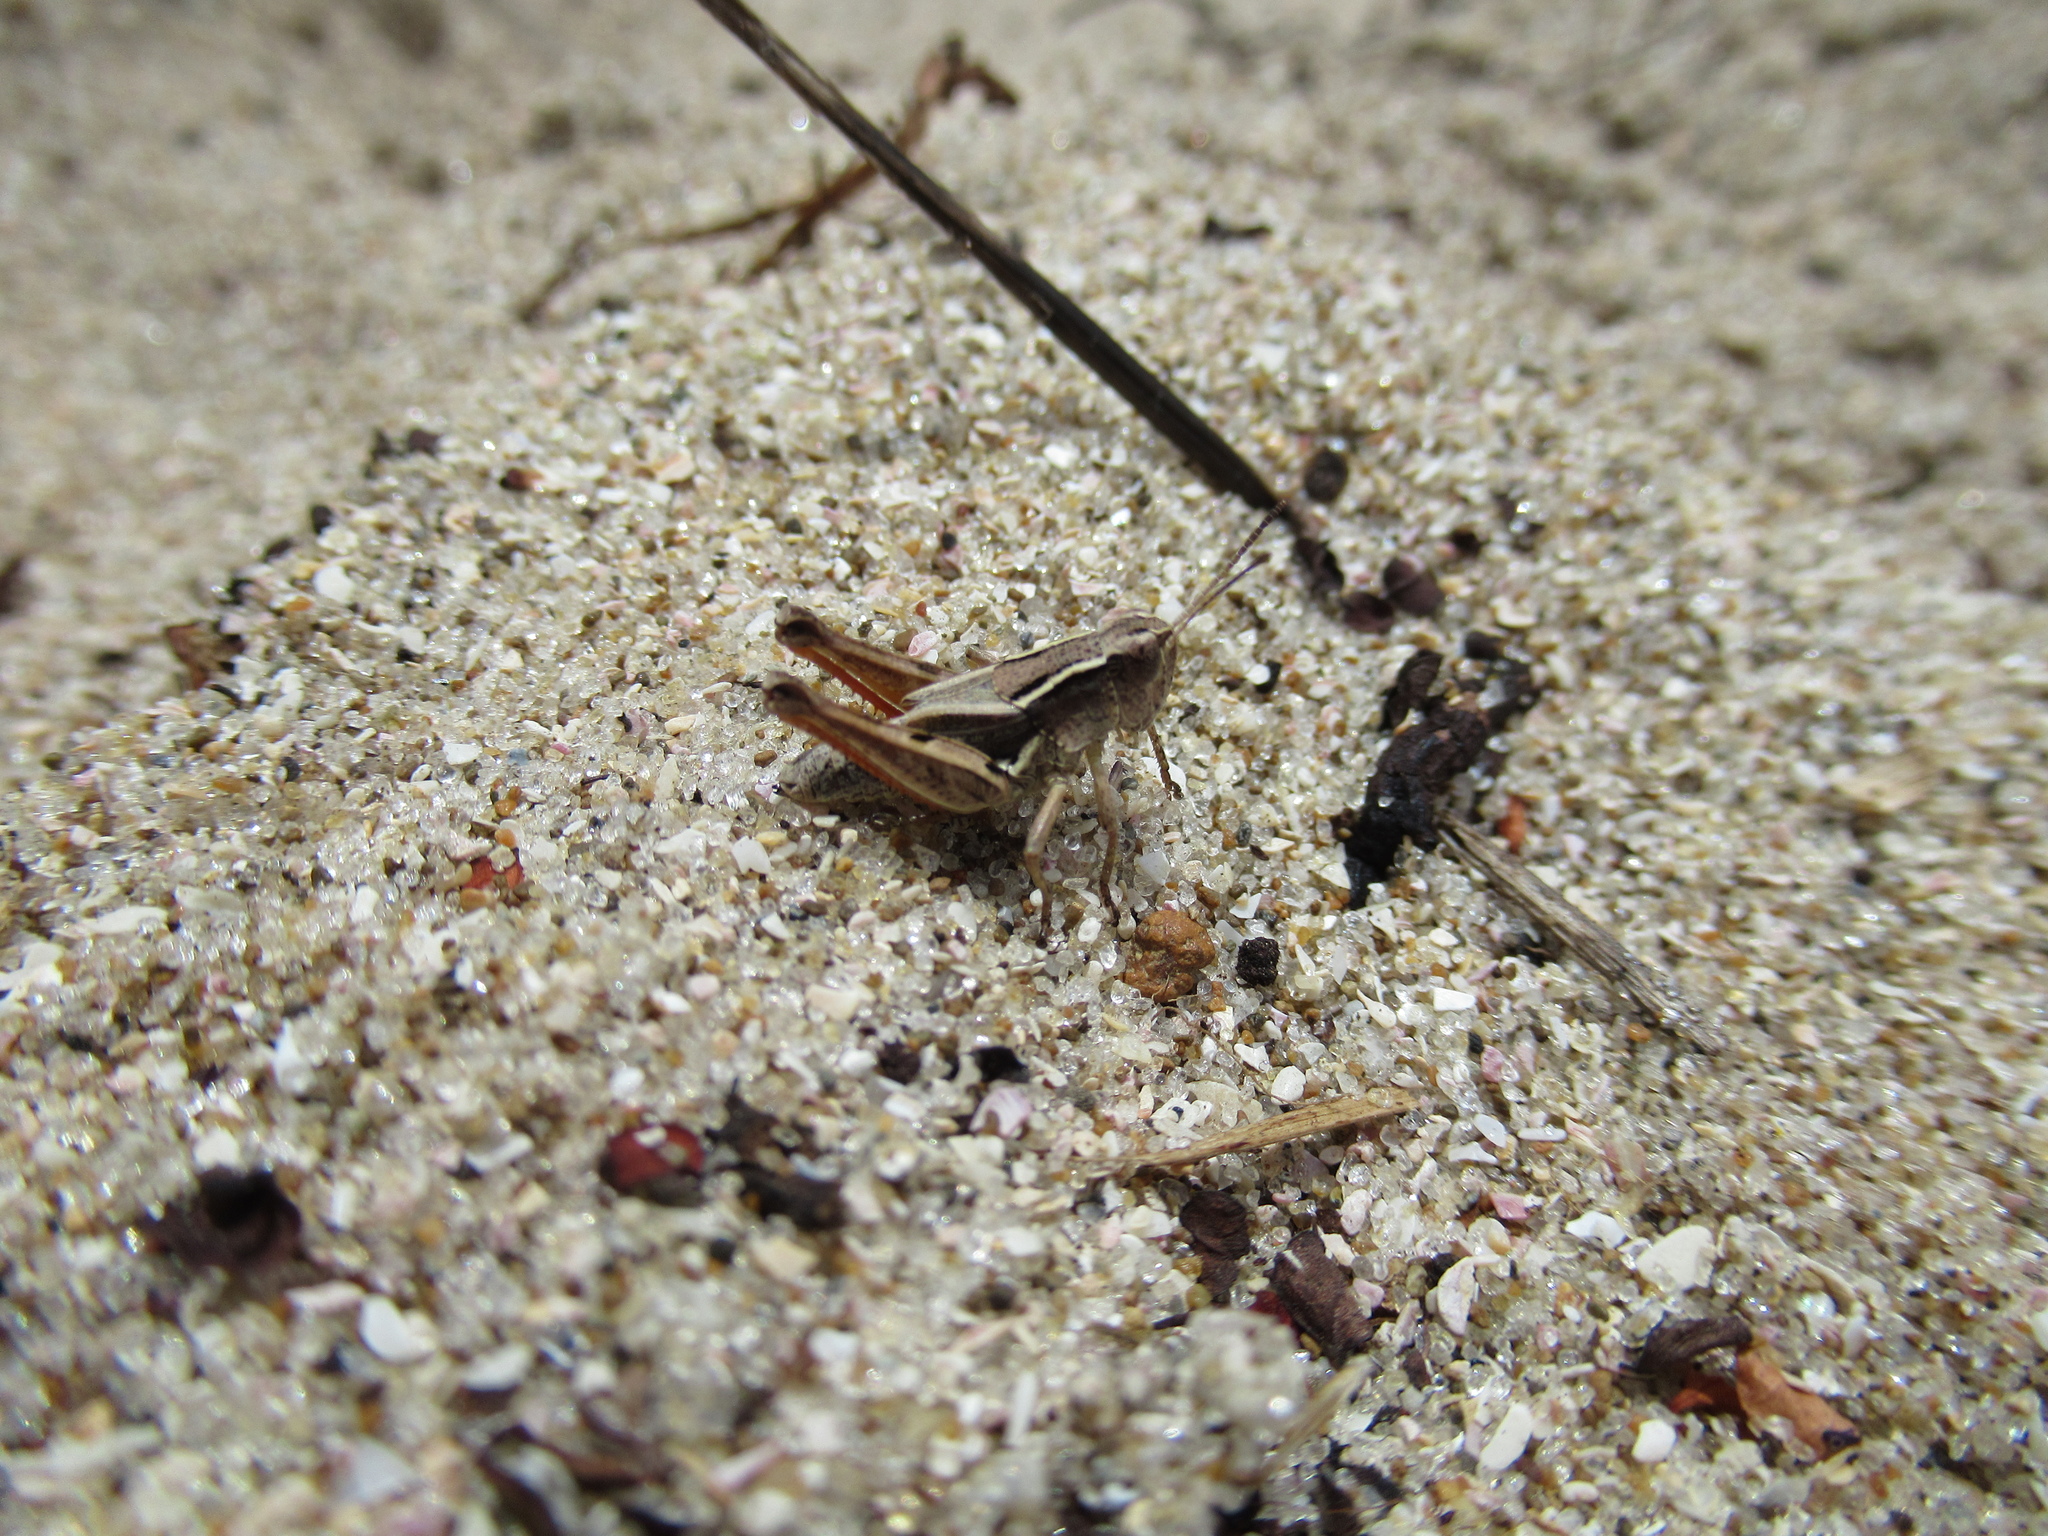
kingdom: Animalia
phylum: Arthropoda
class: Insecta
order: Orthoptera
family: Acrididae
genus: Phaulacridium
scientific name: Phaulacridium marginale
